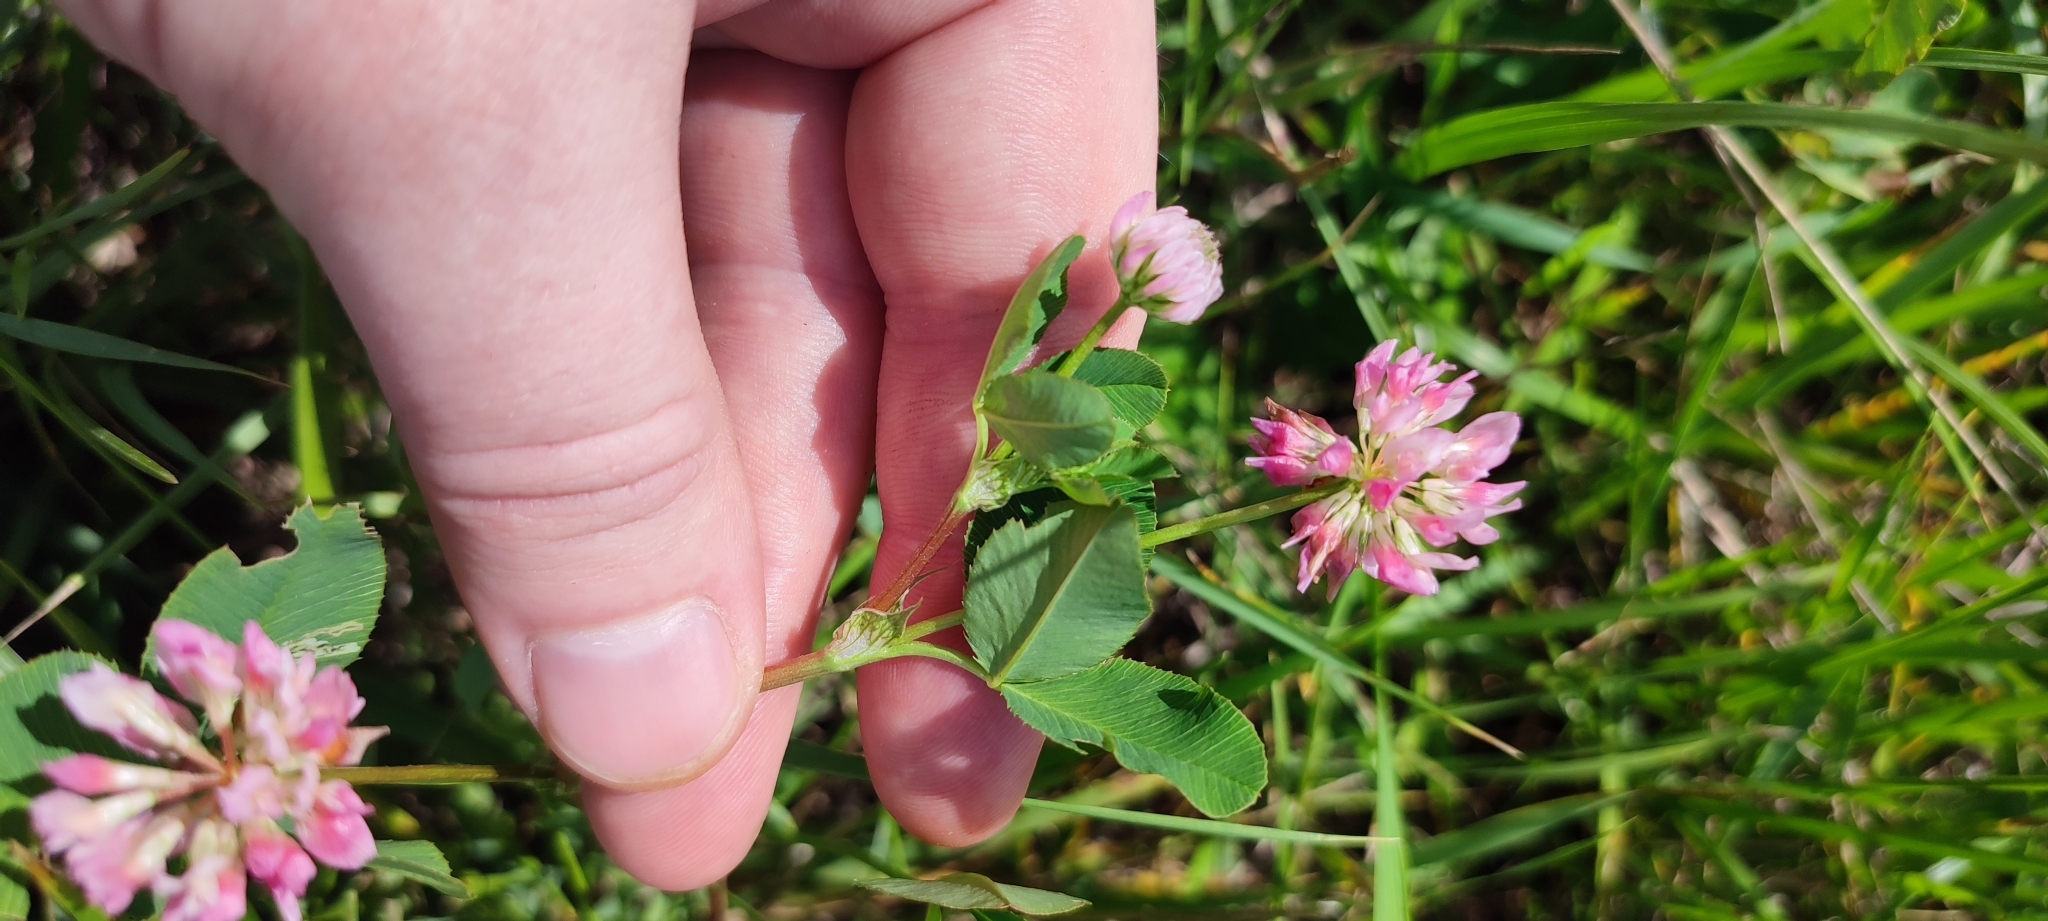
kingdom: Plantae
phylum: Tracheophyta
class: Magnoliopsida
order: Fabales
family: Fabaceae
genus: Trifolium
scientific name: Trifolium hybridum
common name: Alsike clover
